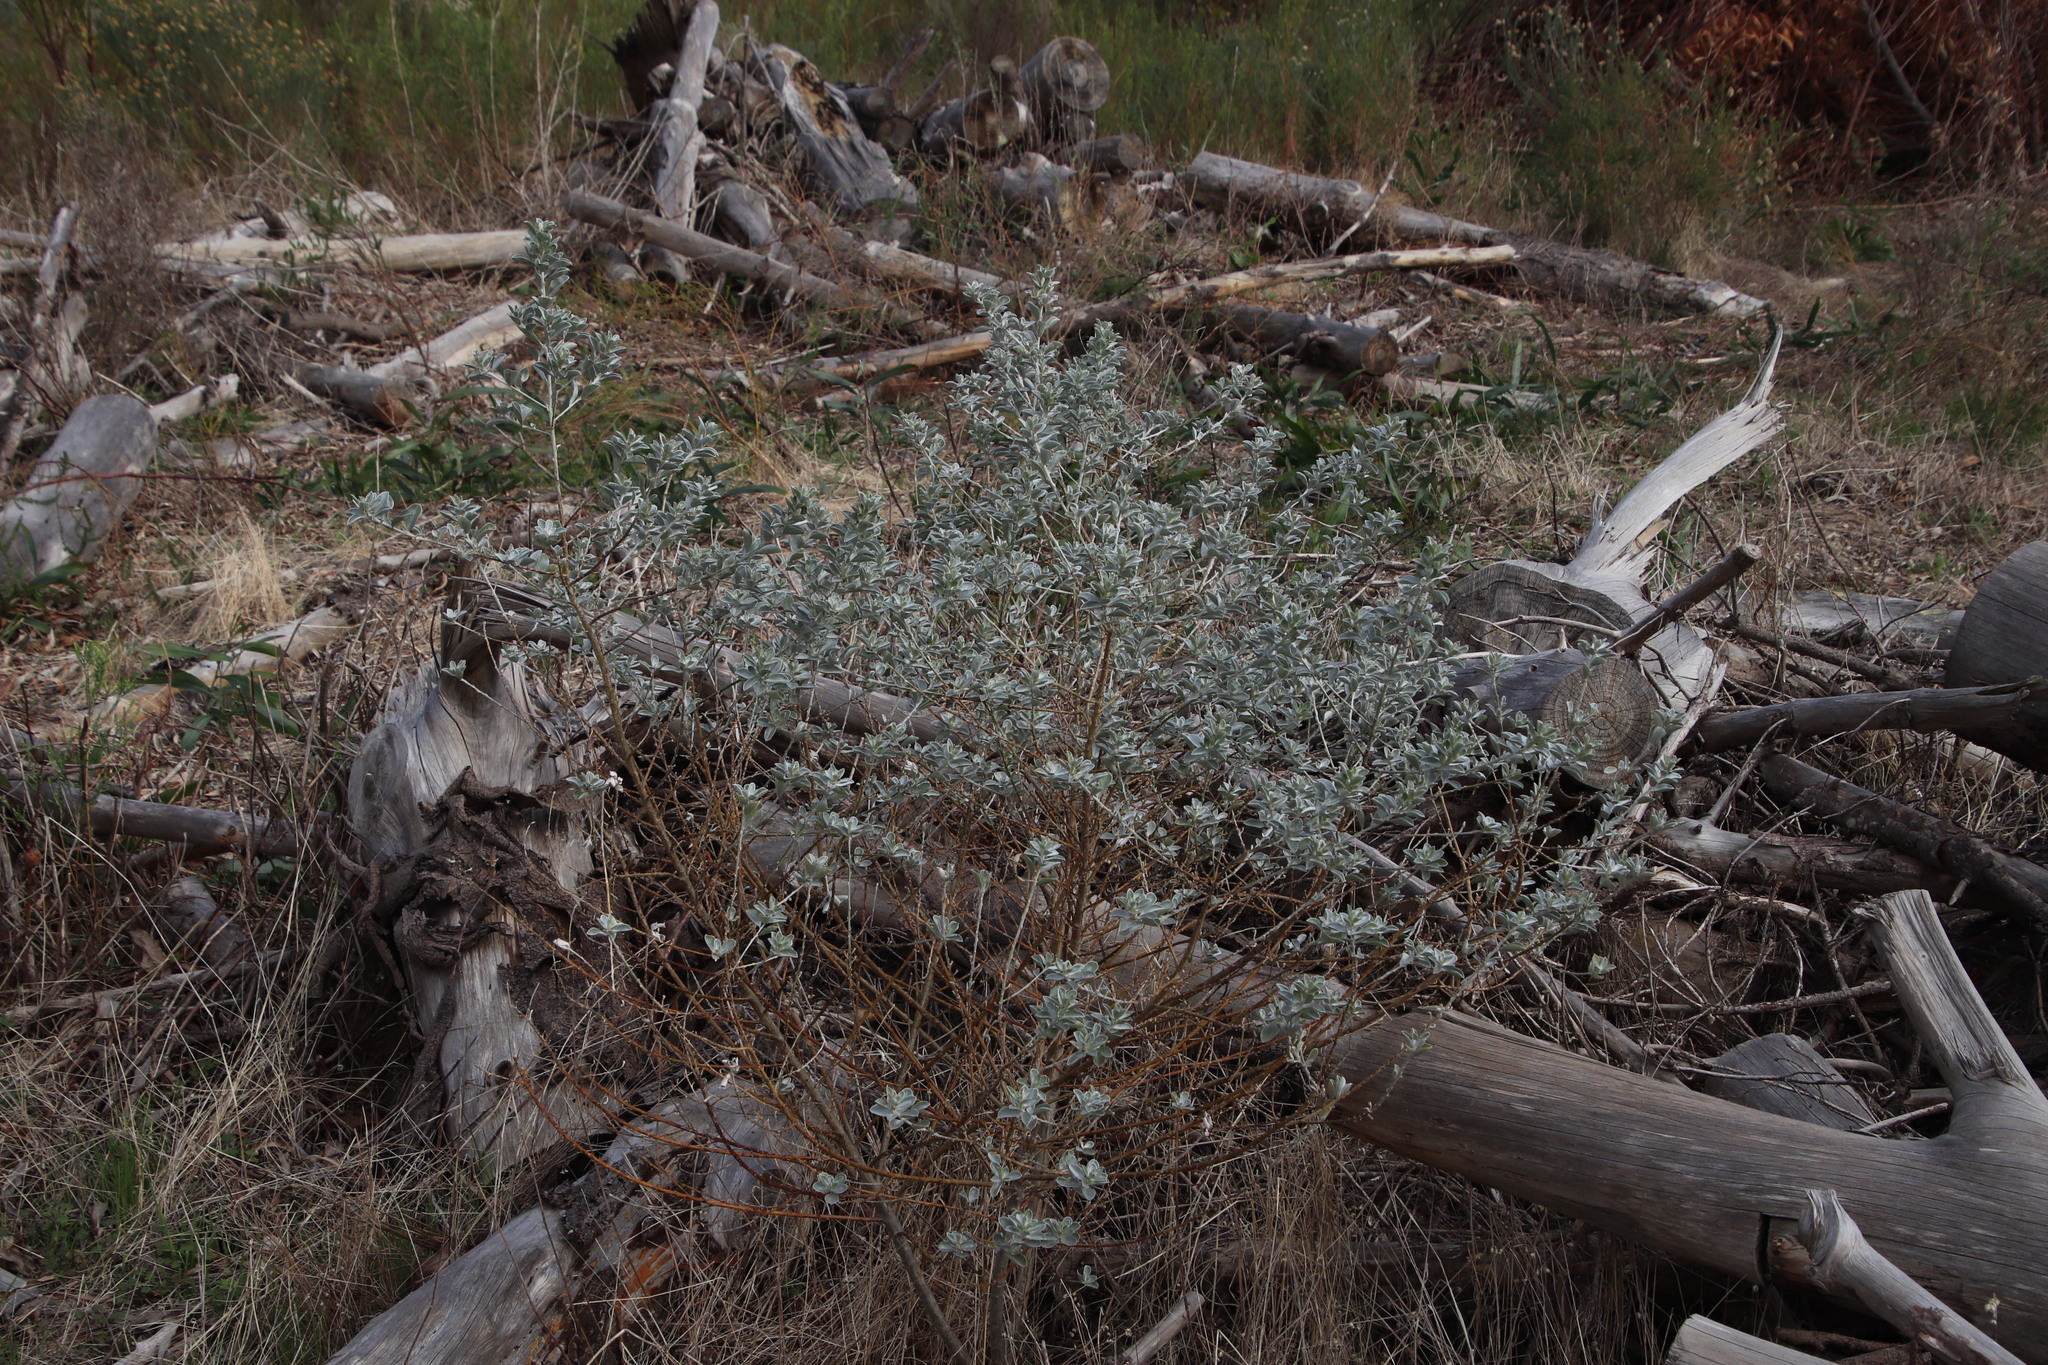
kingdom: Plantae
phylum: Tracheophyta
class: Magnoliopsida
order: Fabales
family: Fabaceae
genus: Podalyria
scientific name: Podalyria sericea
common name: Silver podalyria
